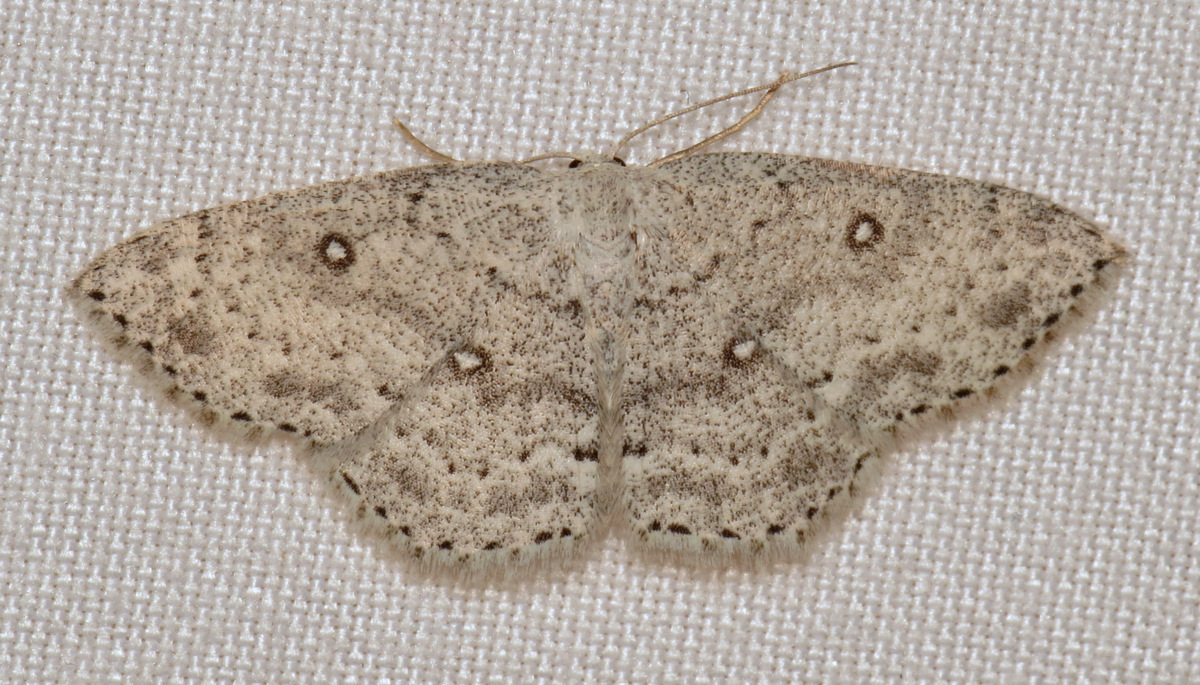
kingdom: Animalia
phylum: Arthropoda
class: Insecta
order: Lepidoptera
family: Geometridae
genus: Cyclophora
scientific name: Cyclophora pendulinaria
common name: Sweet fern geometer
